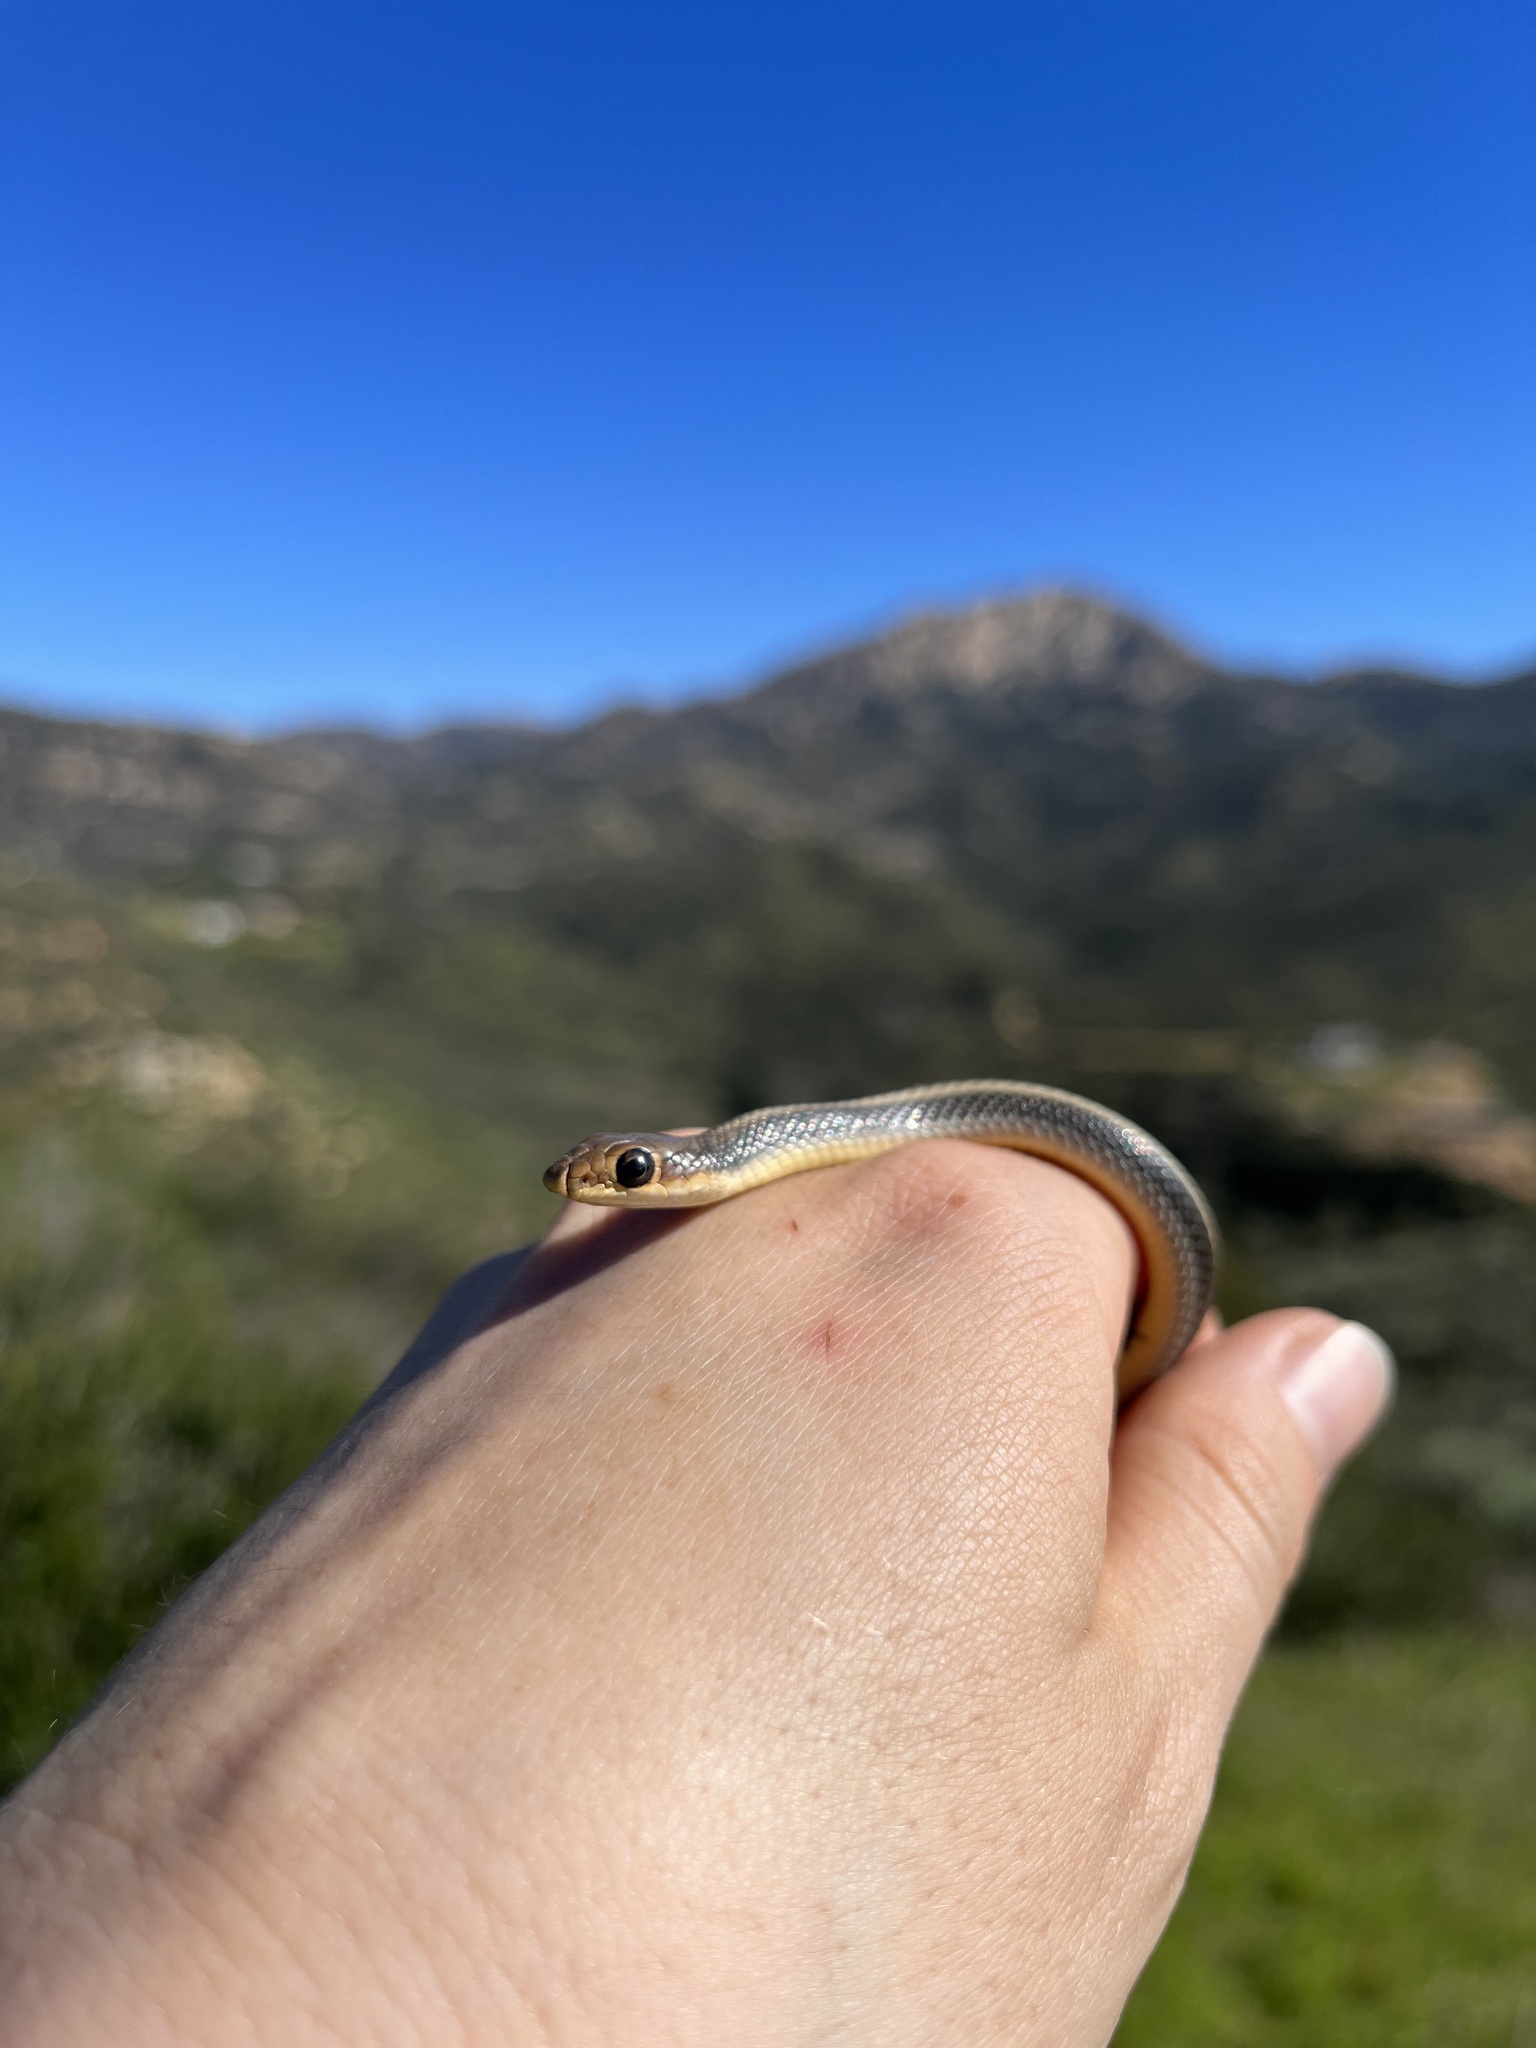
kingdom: Animalia
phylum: Chordata
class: Squamata
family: Colubridae
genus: Salvadora
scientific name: Salvadora hexalepis
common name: Western patchnose snake
